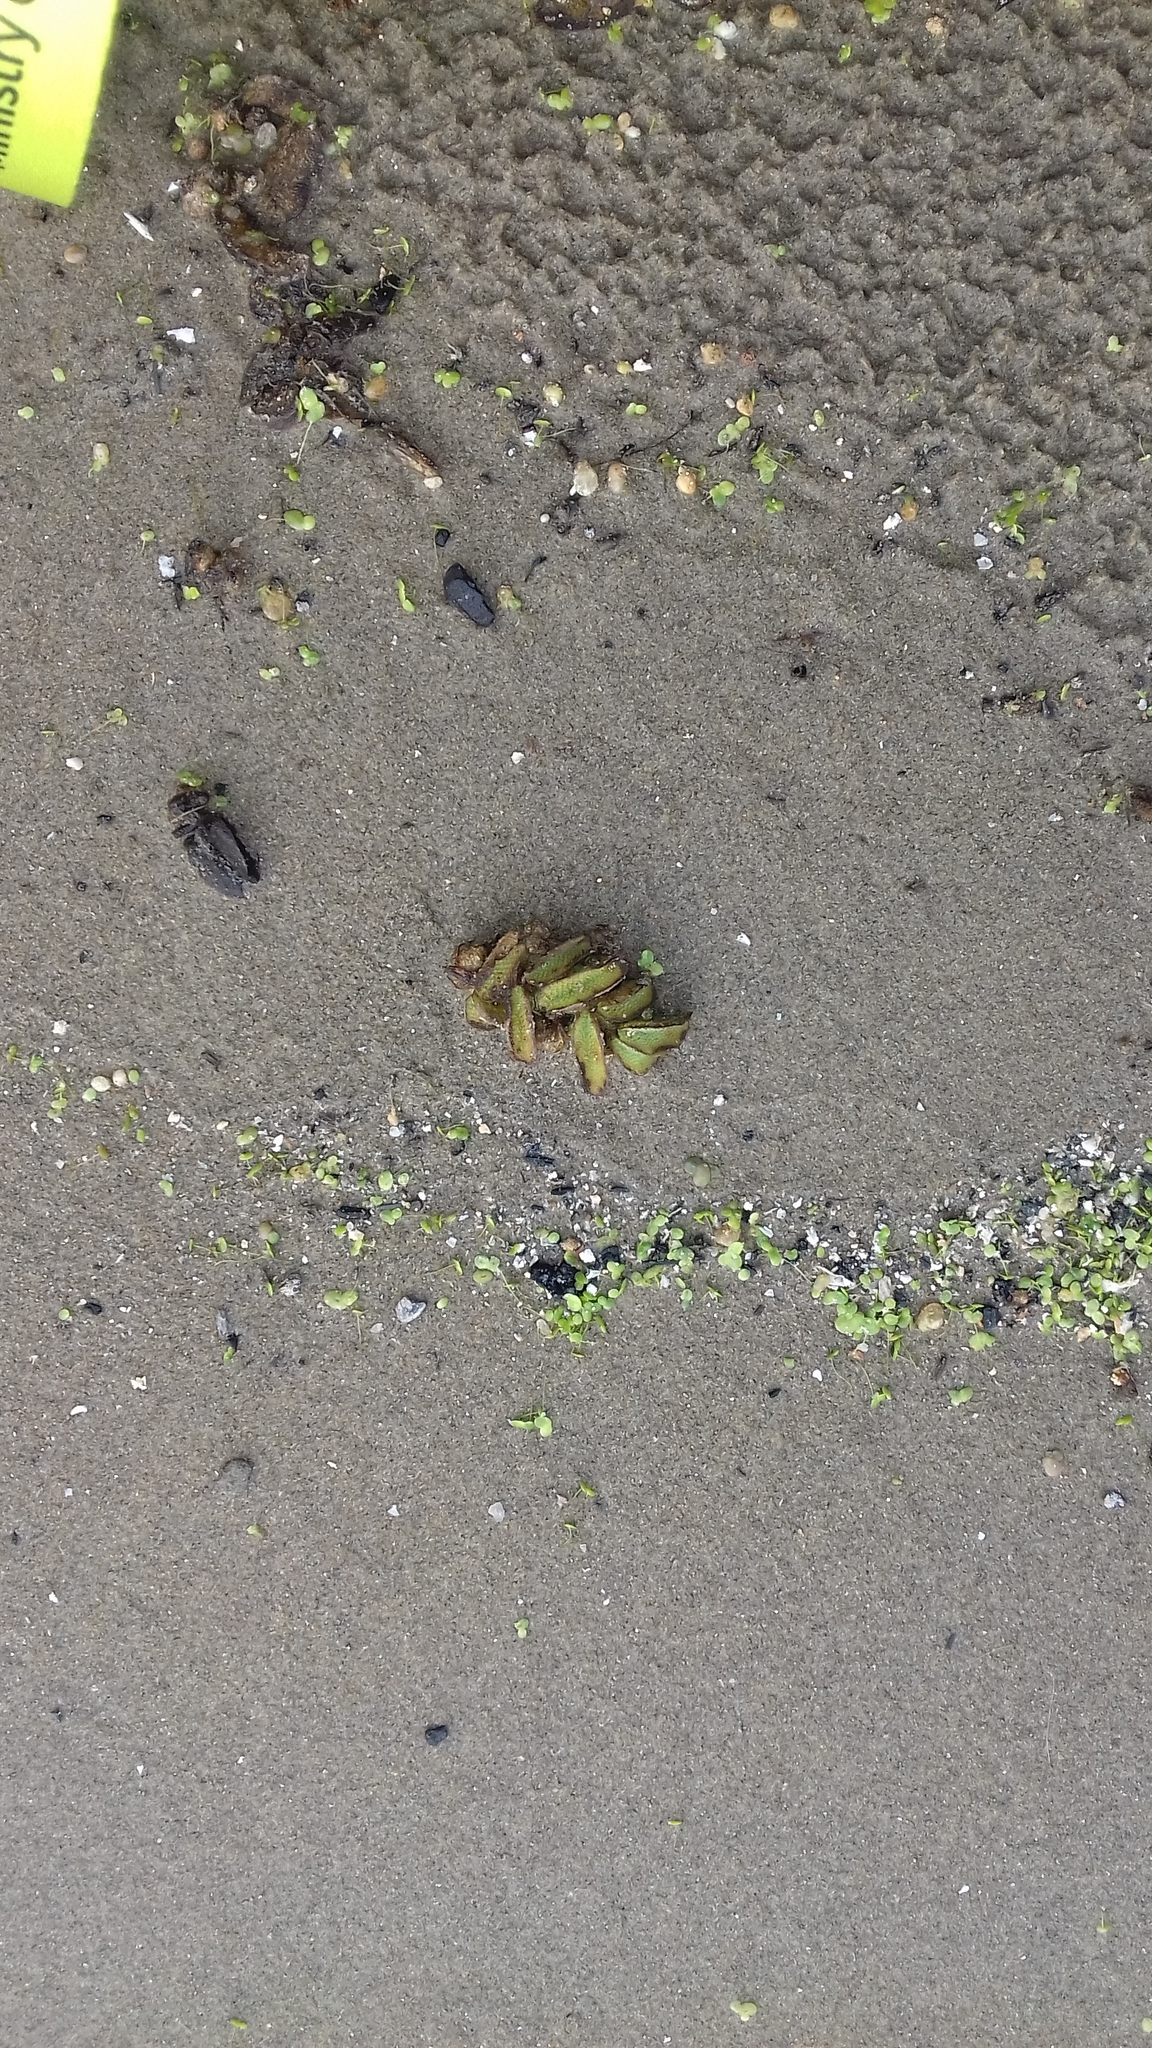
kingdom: Plantae
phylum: Tracheophyta
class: Polypodiopsida
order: Salviniales
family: Salviniaceae
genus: Salvinia
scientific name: Salvinia natans
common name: Floating fern
